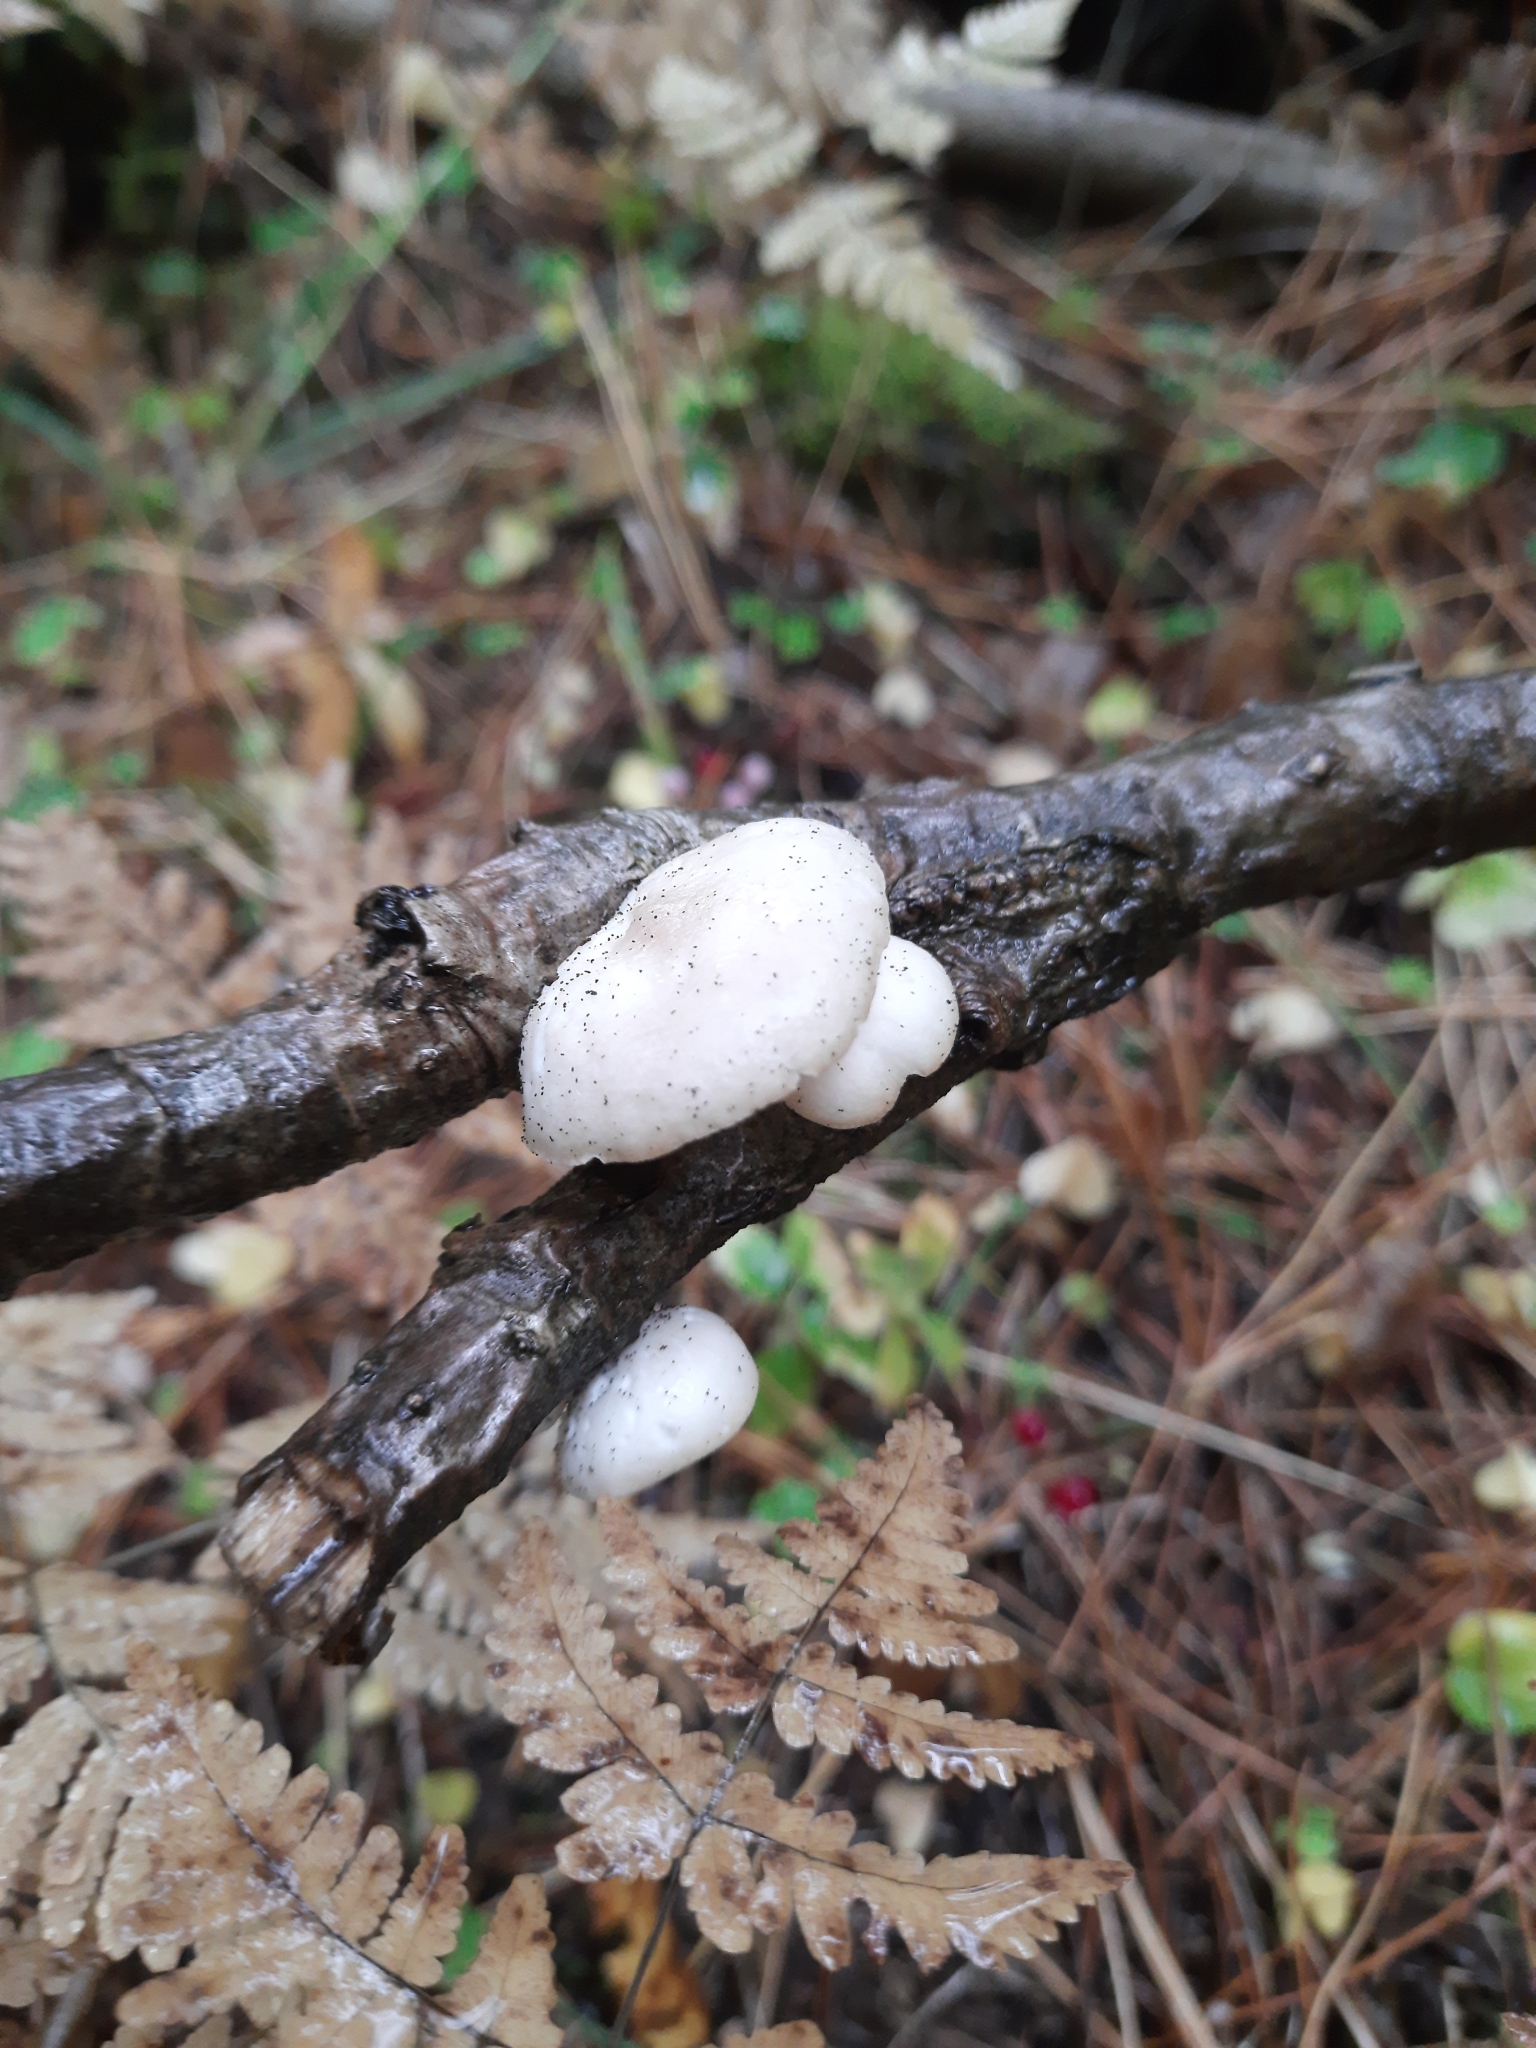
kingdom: Fungi
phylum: Basidiomycota
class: Agaricomycetes
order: Agaricales
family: Pleurotaceae
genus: Pleurotus
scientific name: Pleurotus pulmonarius
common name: Pale oyster
